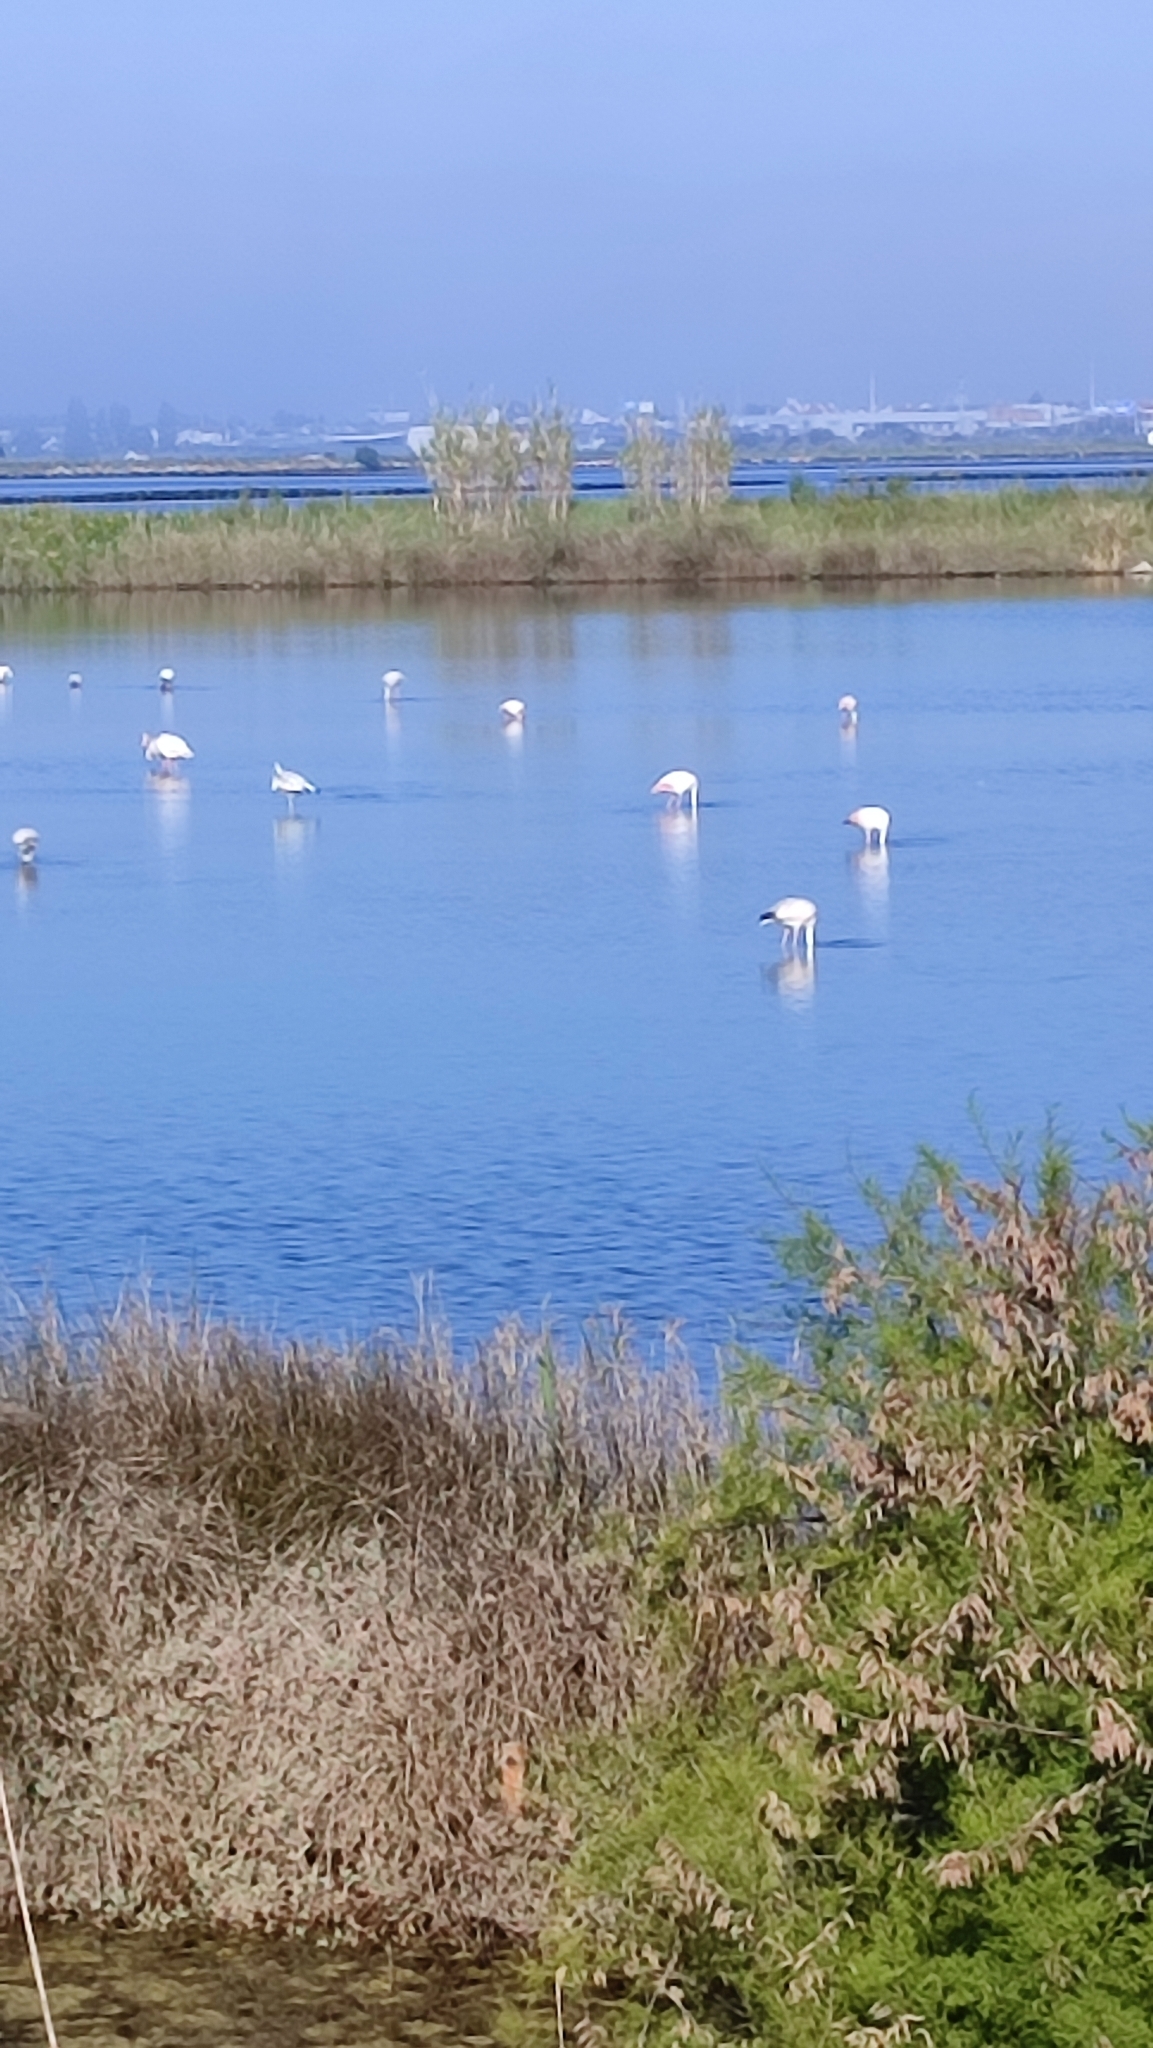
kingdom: Animalia
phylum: Chordata
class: Aves
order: Phoenicopteriformes
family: Phoenicopteridae
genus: Phoenicopterus
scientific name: Phoenicopterus roseus
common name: Greater flamingo
